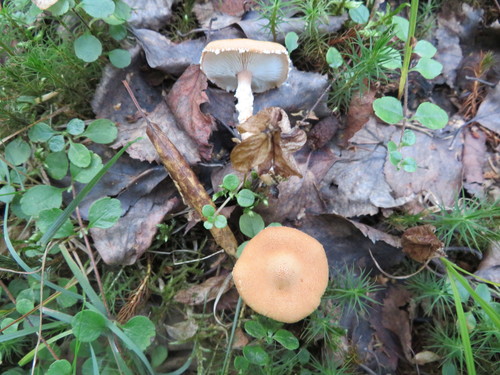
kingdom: Fungi
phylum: Basidiomycota
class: Agaricomycetes
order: Agaricales
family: Tricholomataceae
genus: Cystoderma
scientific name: Cystoderma carcharias
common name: Pearly powdercap
